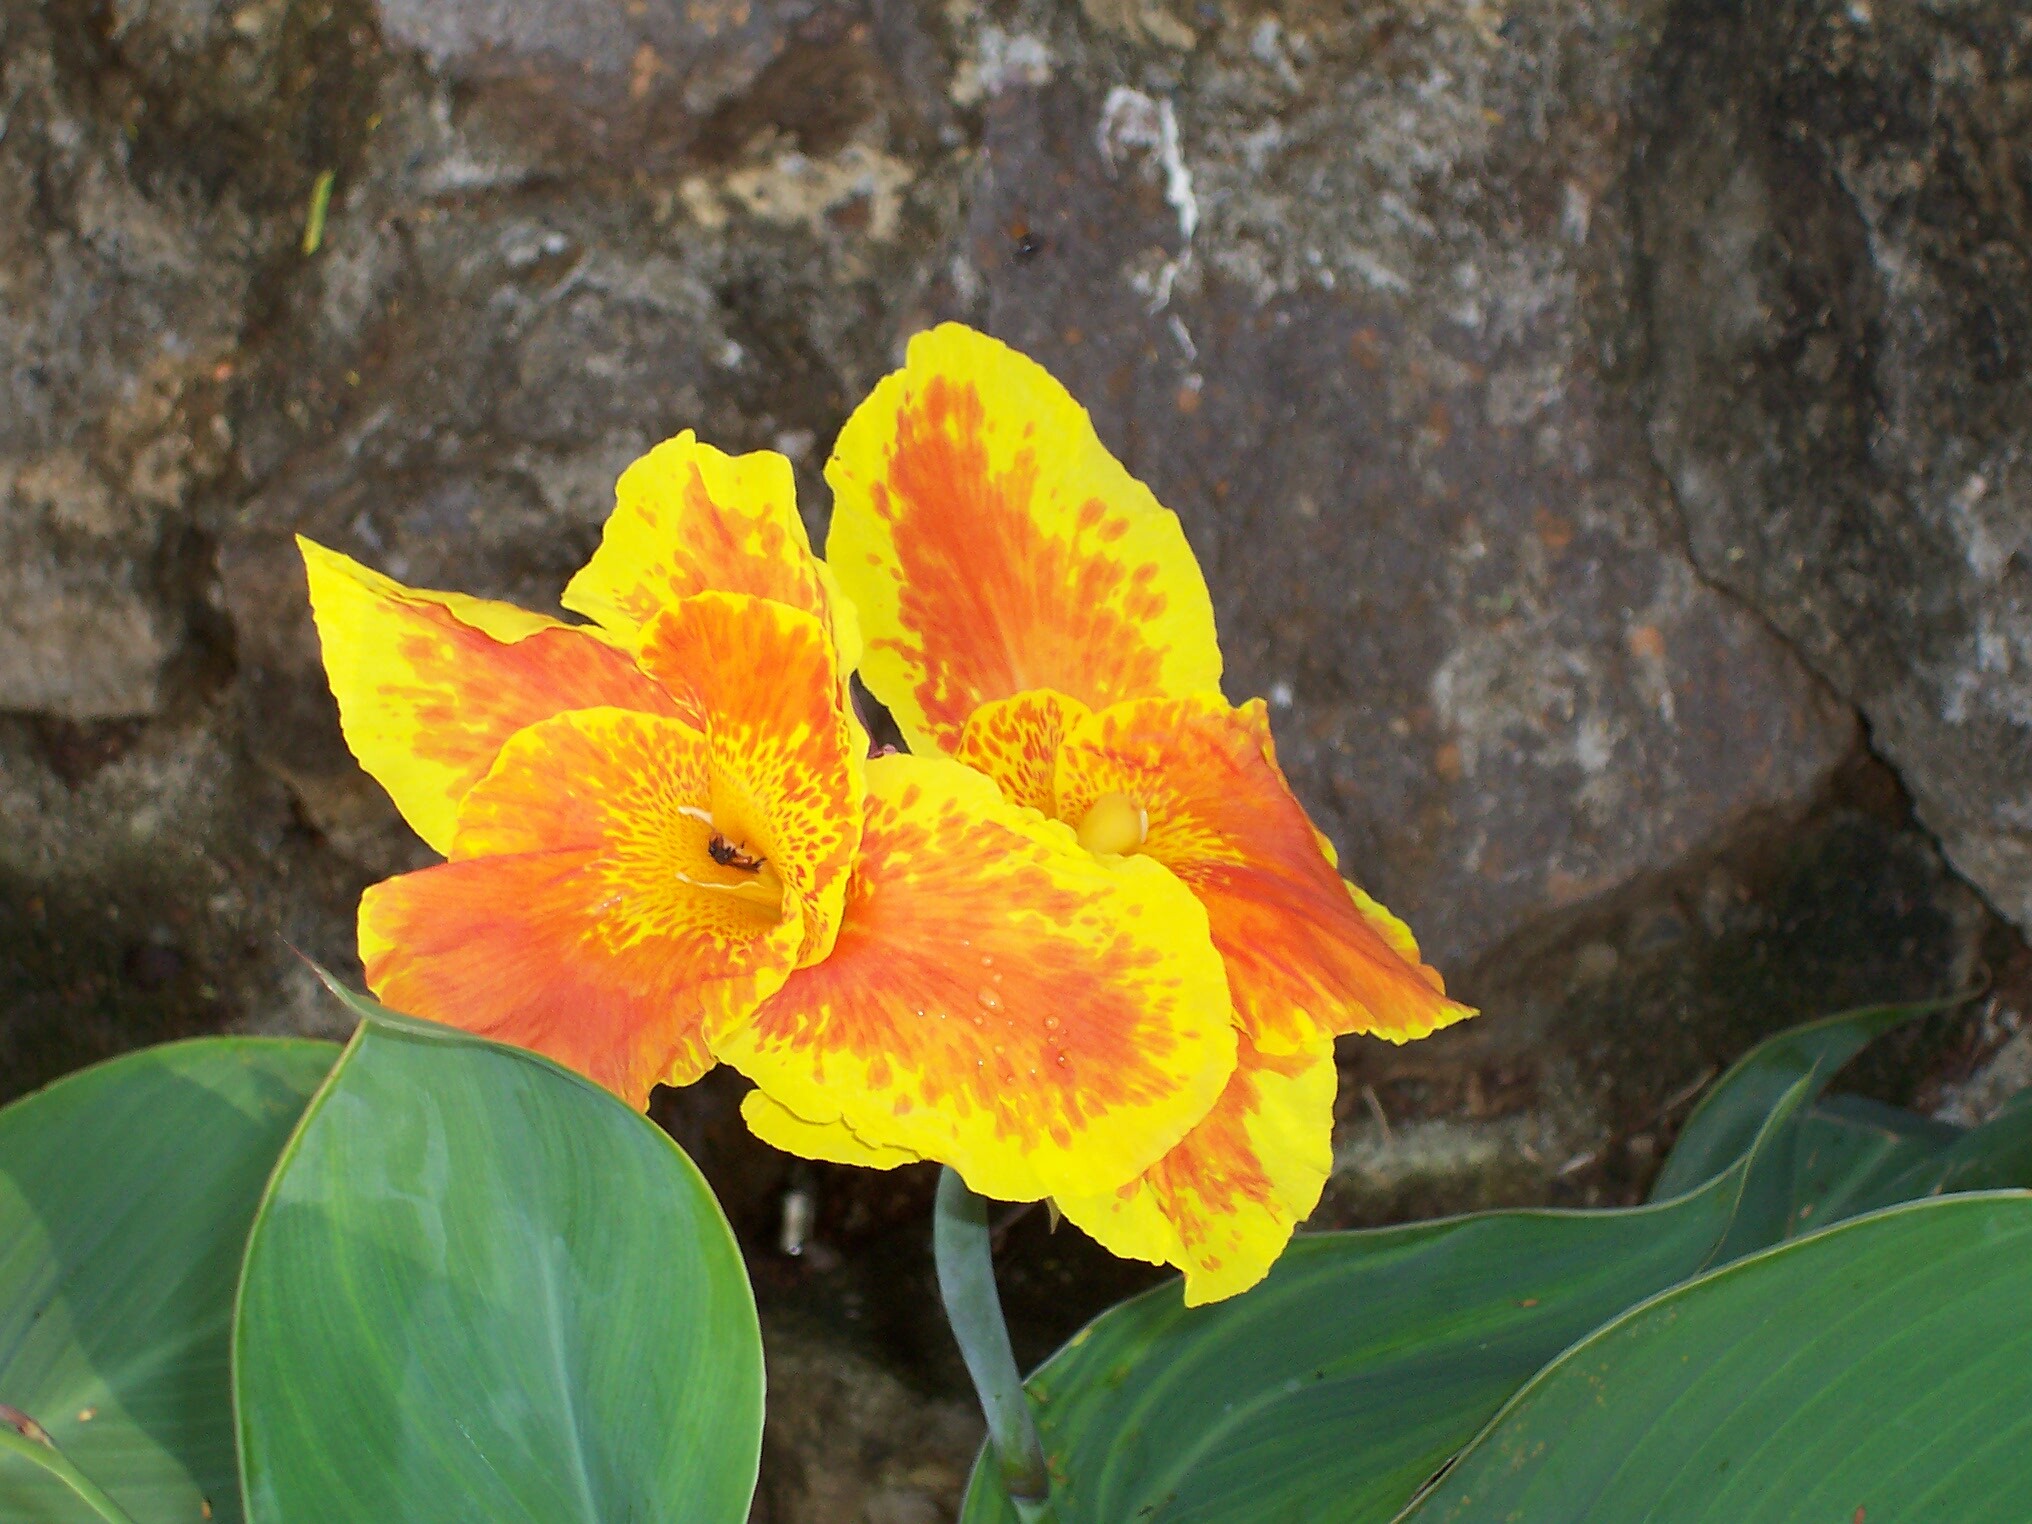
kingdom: Animalia
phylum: Arthropoda
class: Insecta
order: Hymenoptera
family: Apidae
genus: Trigona
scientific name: Trigona fulviventris
